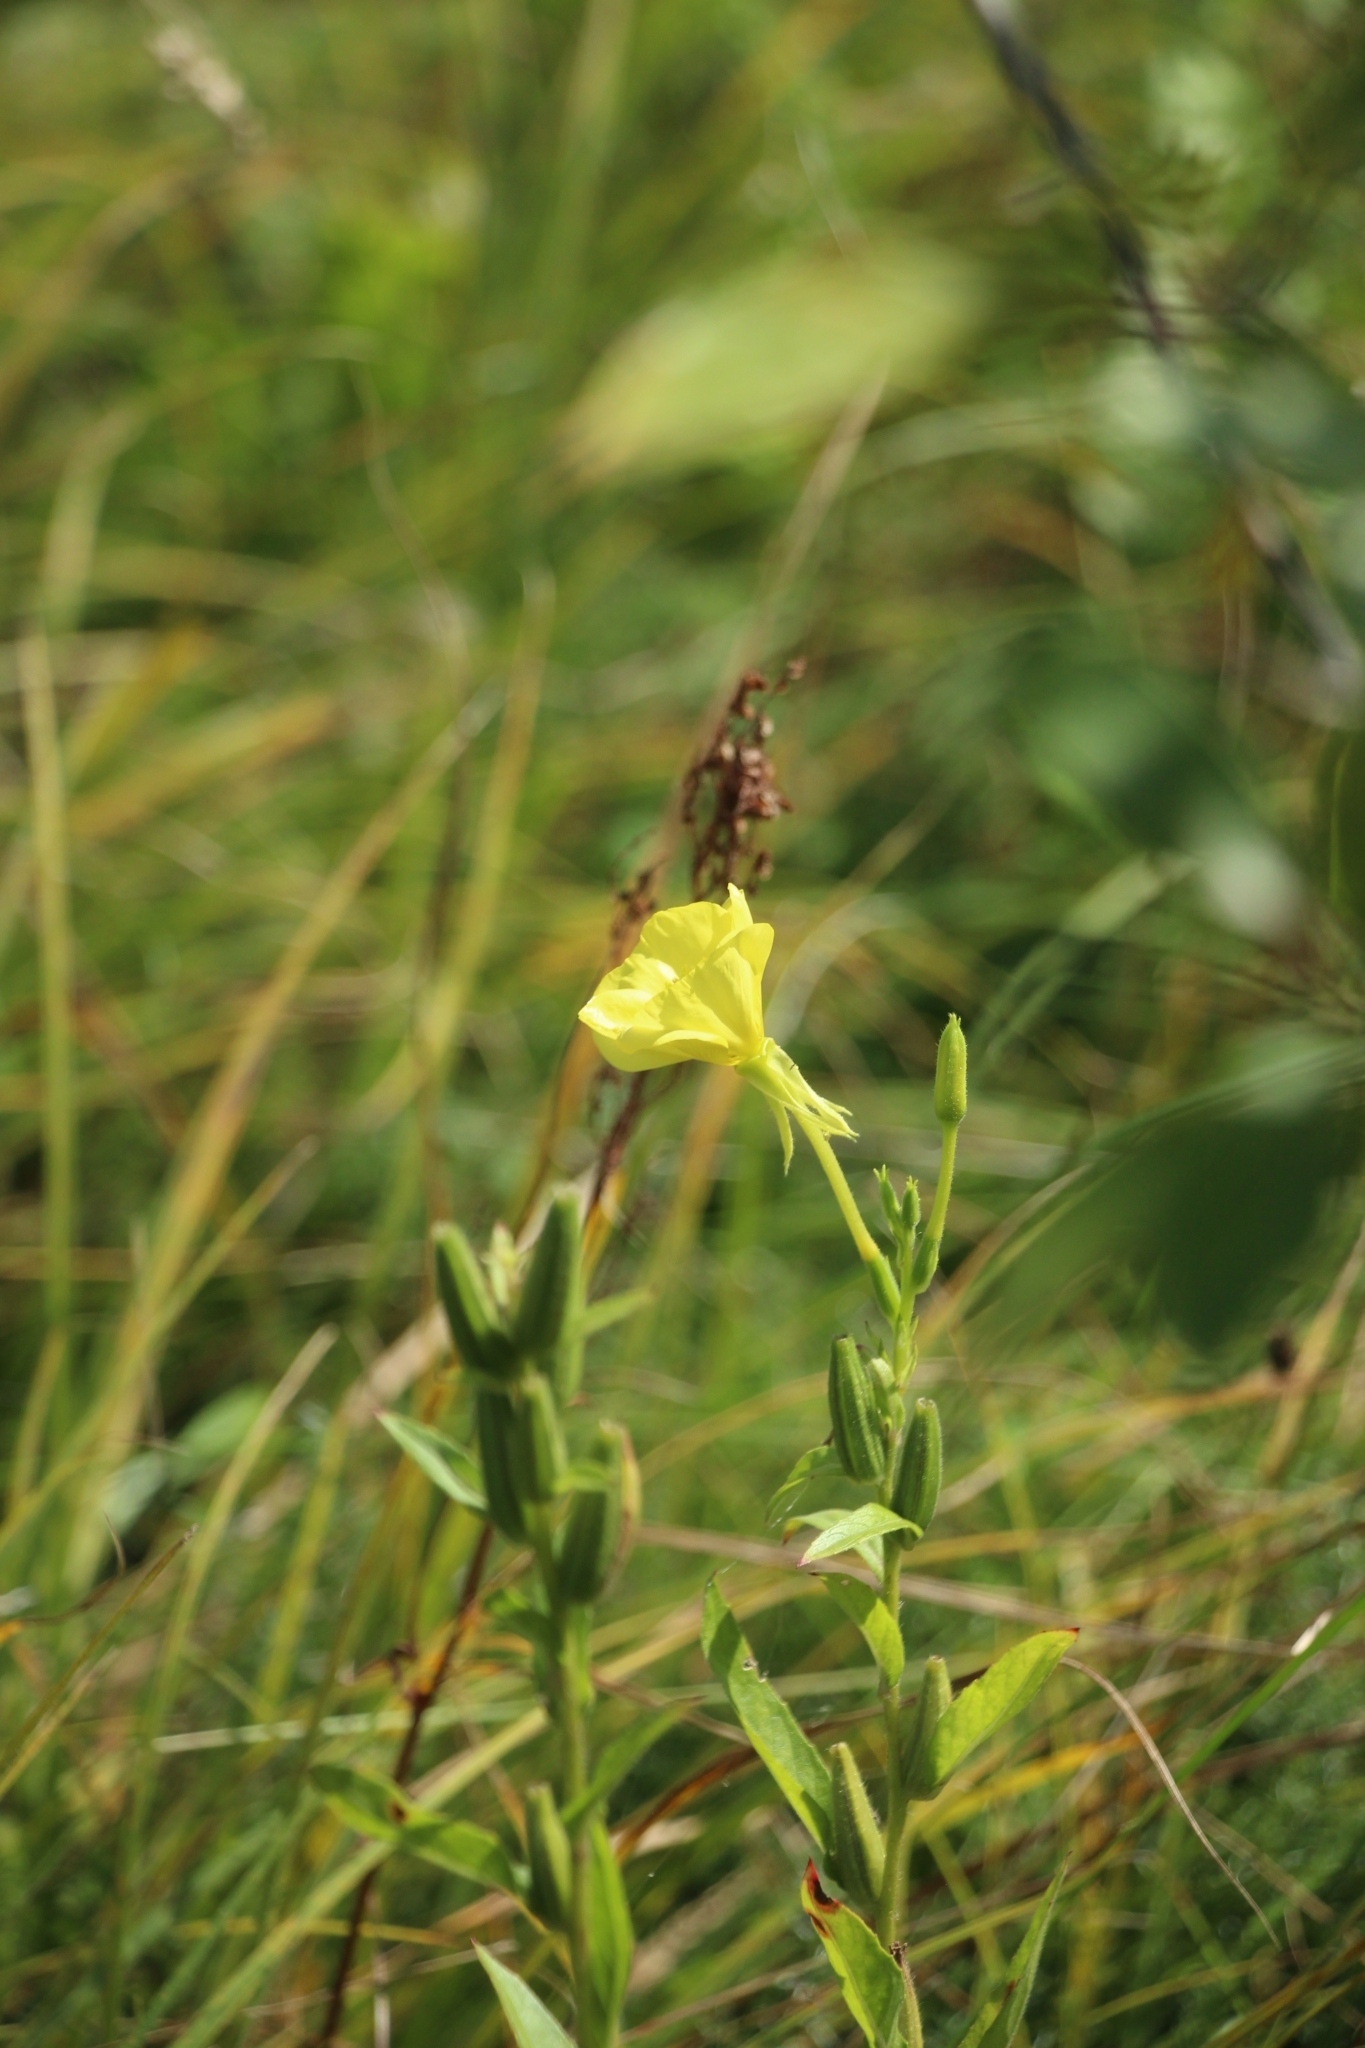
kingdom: Plantae
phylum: Tracheophyta
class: Magnoliopsida
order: Myrtales
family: Onagraceae
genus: Oenothera
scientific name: Oenothera biennis
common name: Common evening-primrose
